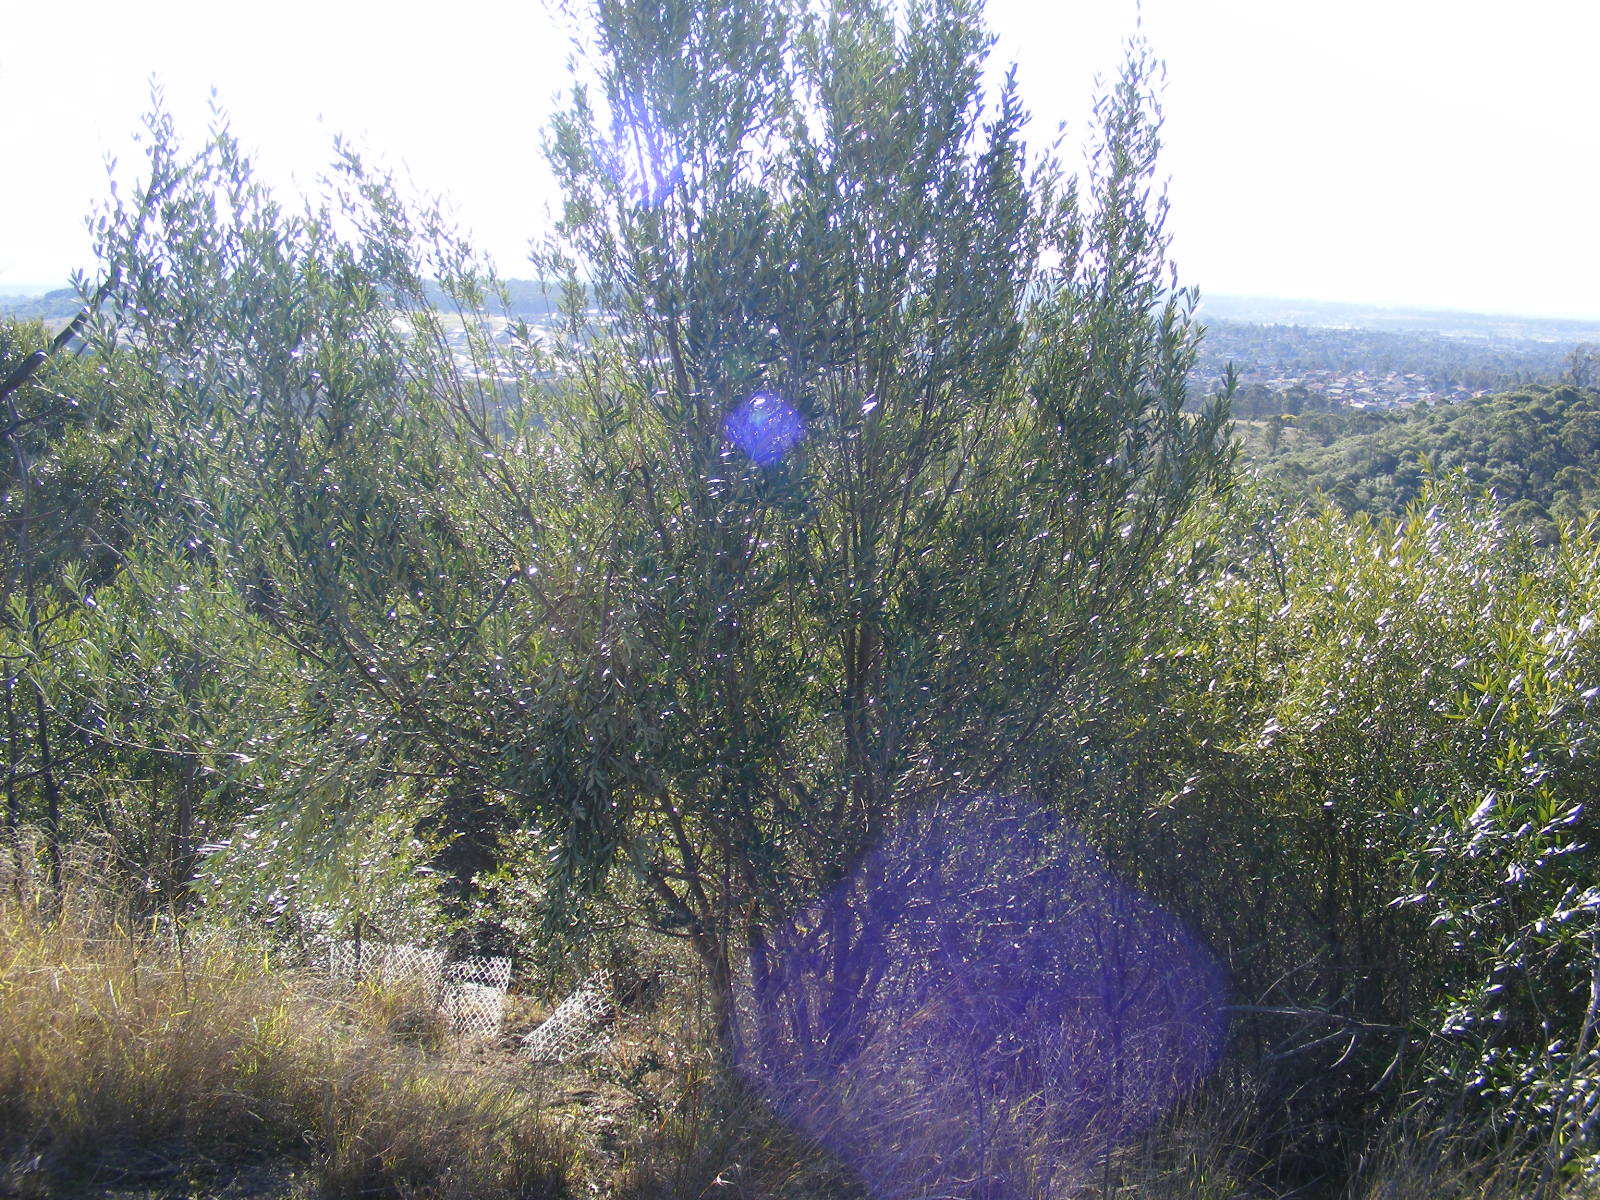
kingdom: Plantae
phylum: Tracheophyta
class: Magnoliopsida
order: Lamiales
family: Oleaceae
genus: Olea
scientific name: Olea europaea
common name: Olive
